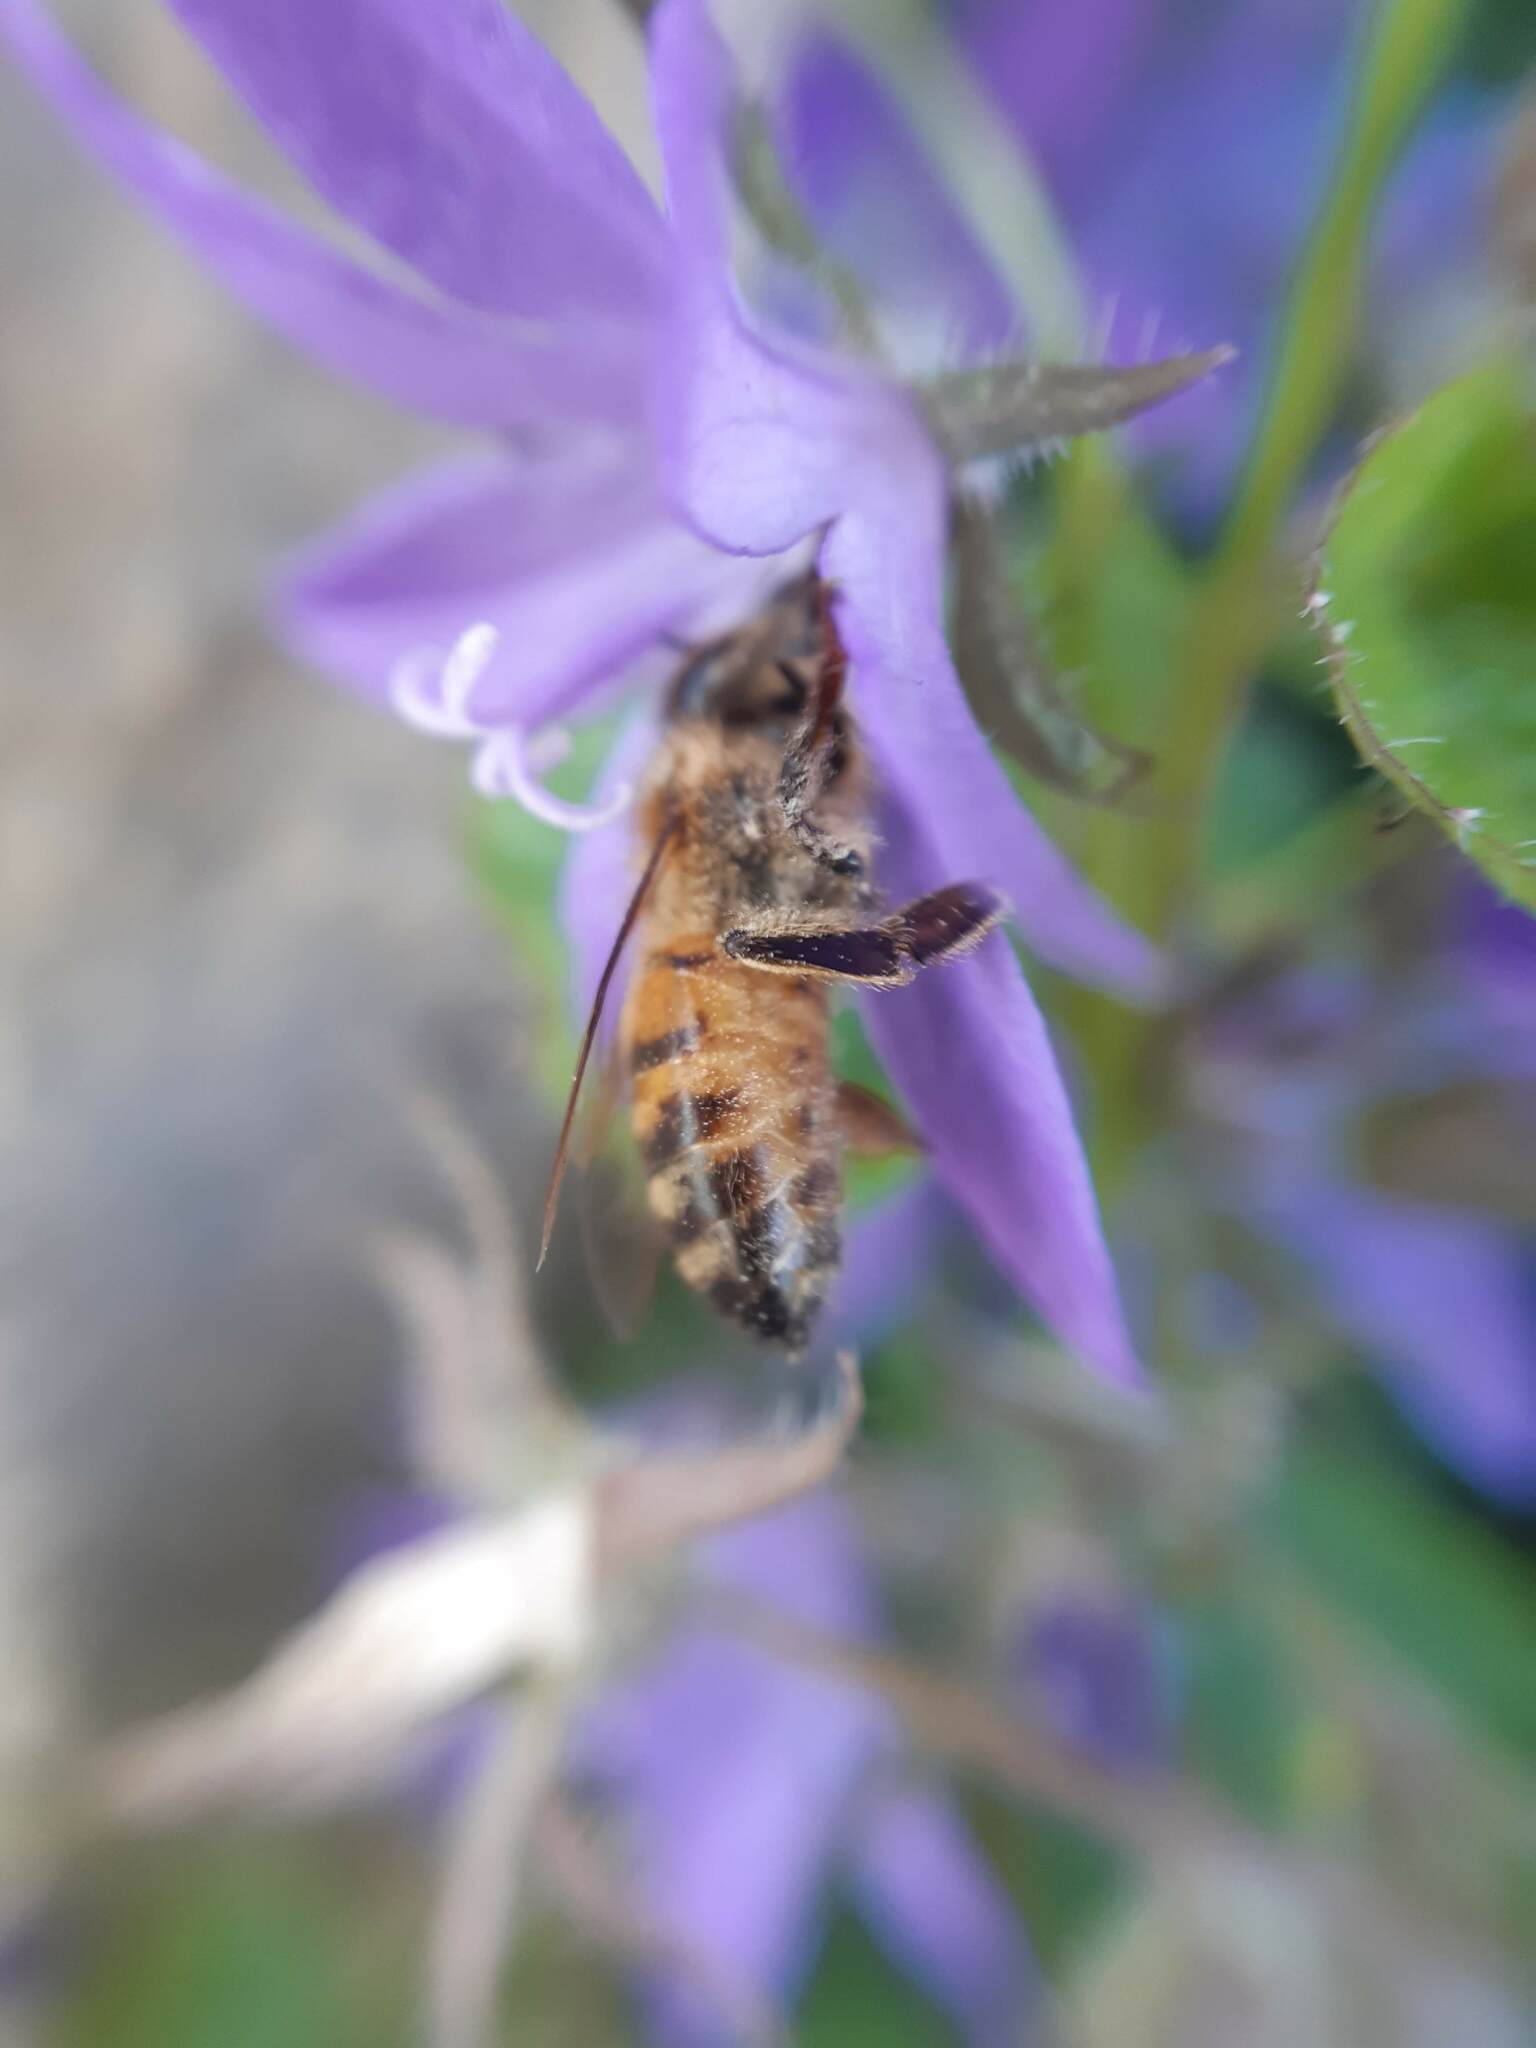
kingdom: Animalia
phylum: Arthropoda
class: Insecta
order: Hymenoptera
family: Apidae
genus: Apis
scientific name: Apis mellifera
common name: Honey bee
